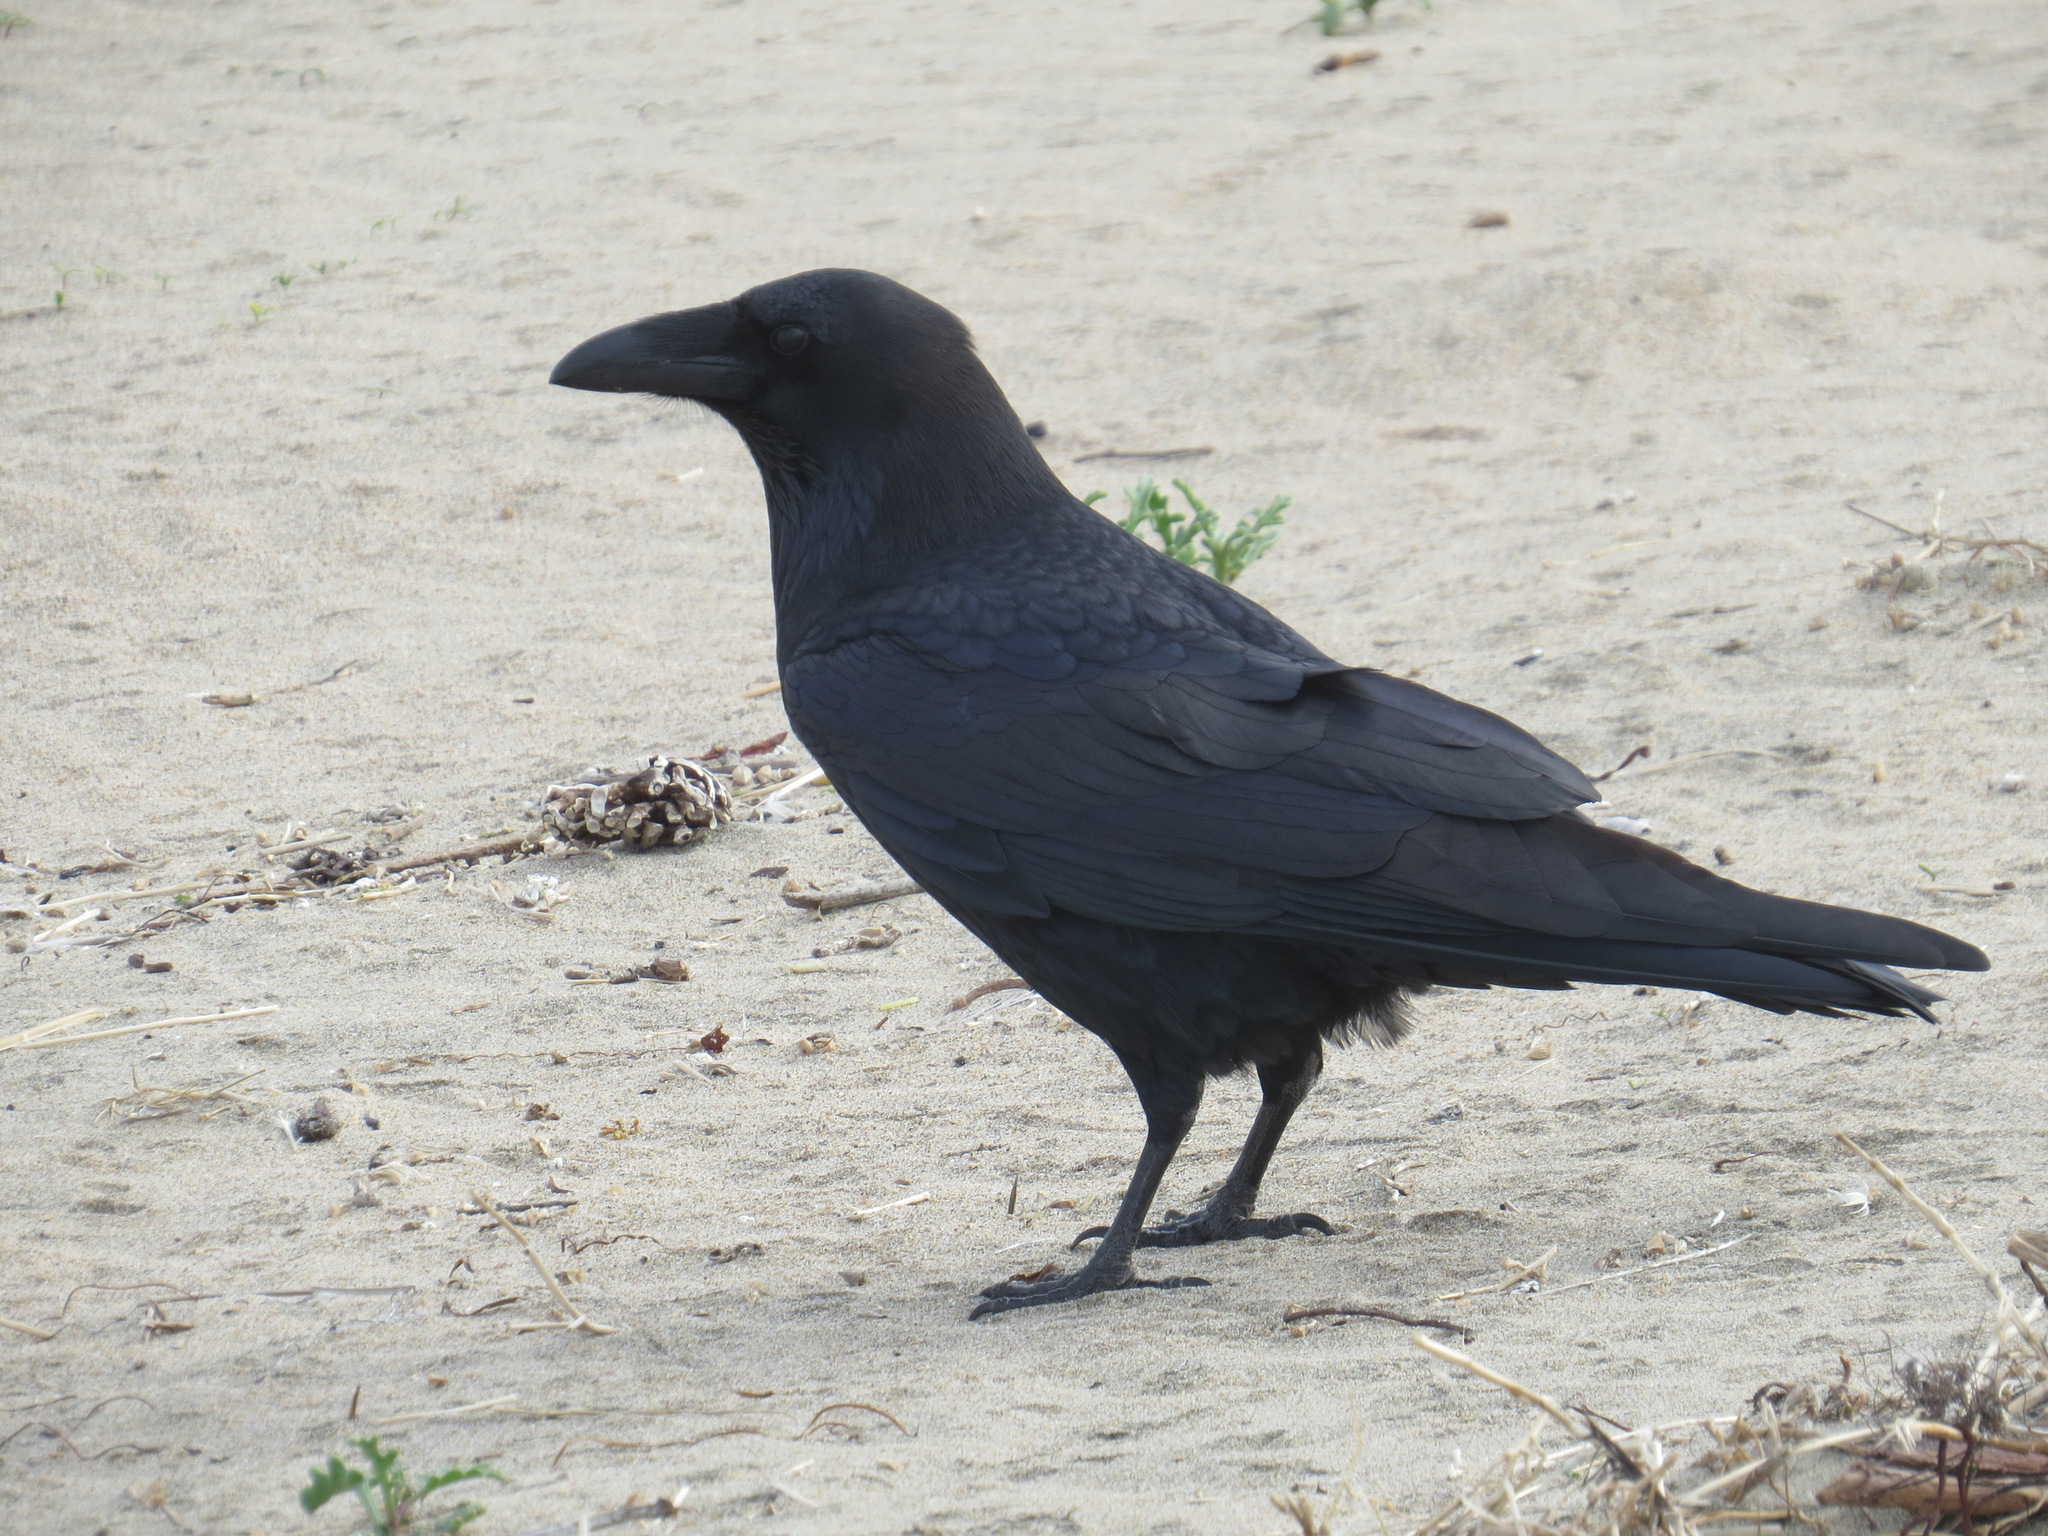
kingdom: Animalia
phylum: Chordata
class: Aves
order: Passeriformes
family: Corvidae
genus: Corvus
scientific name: Corvus corax
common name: Common raven
